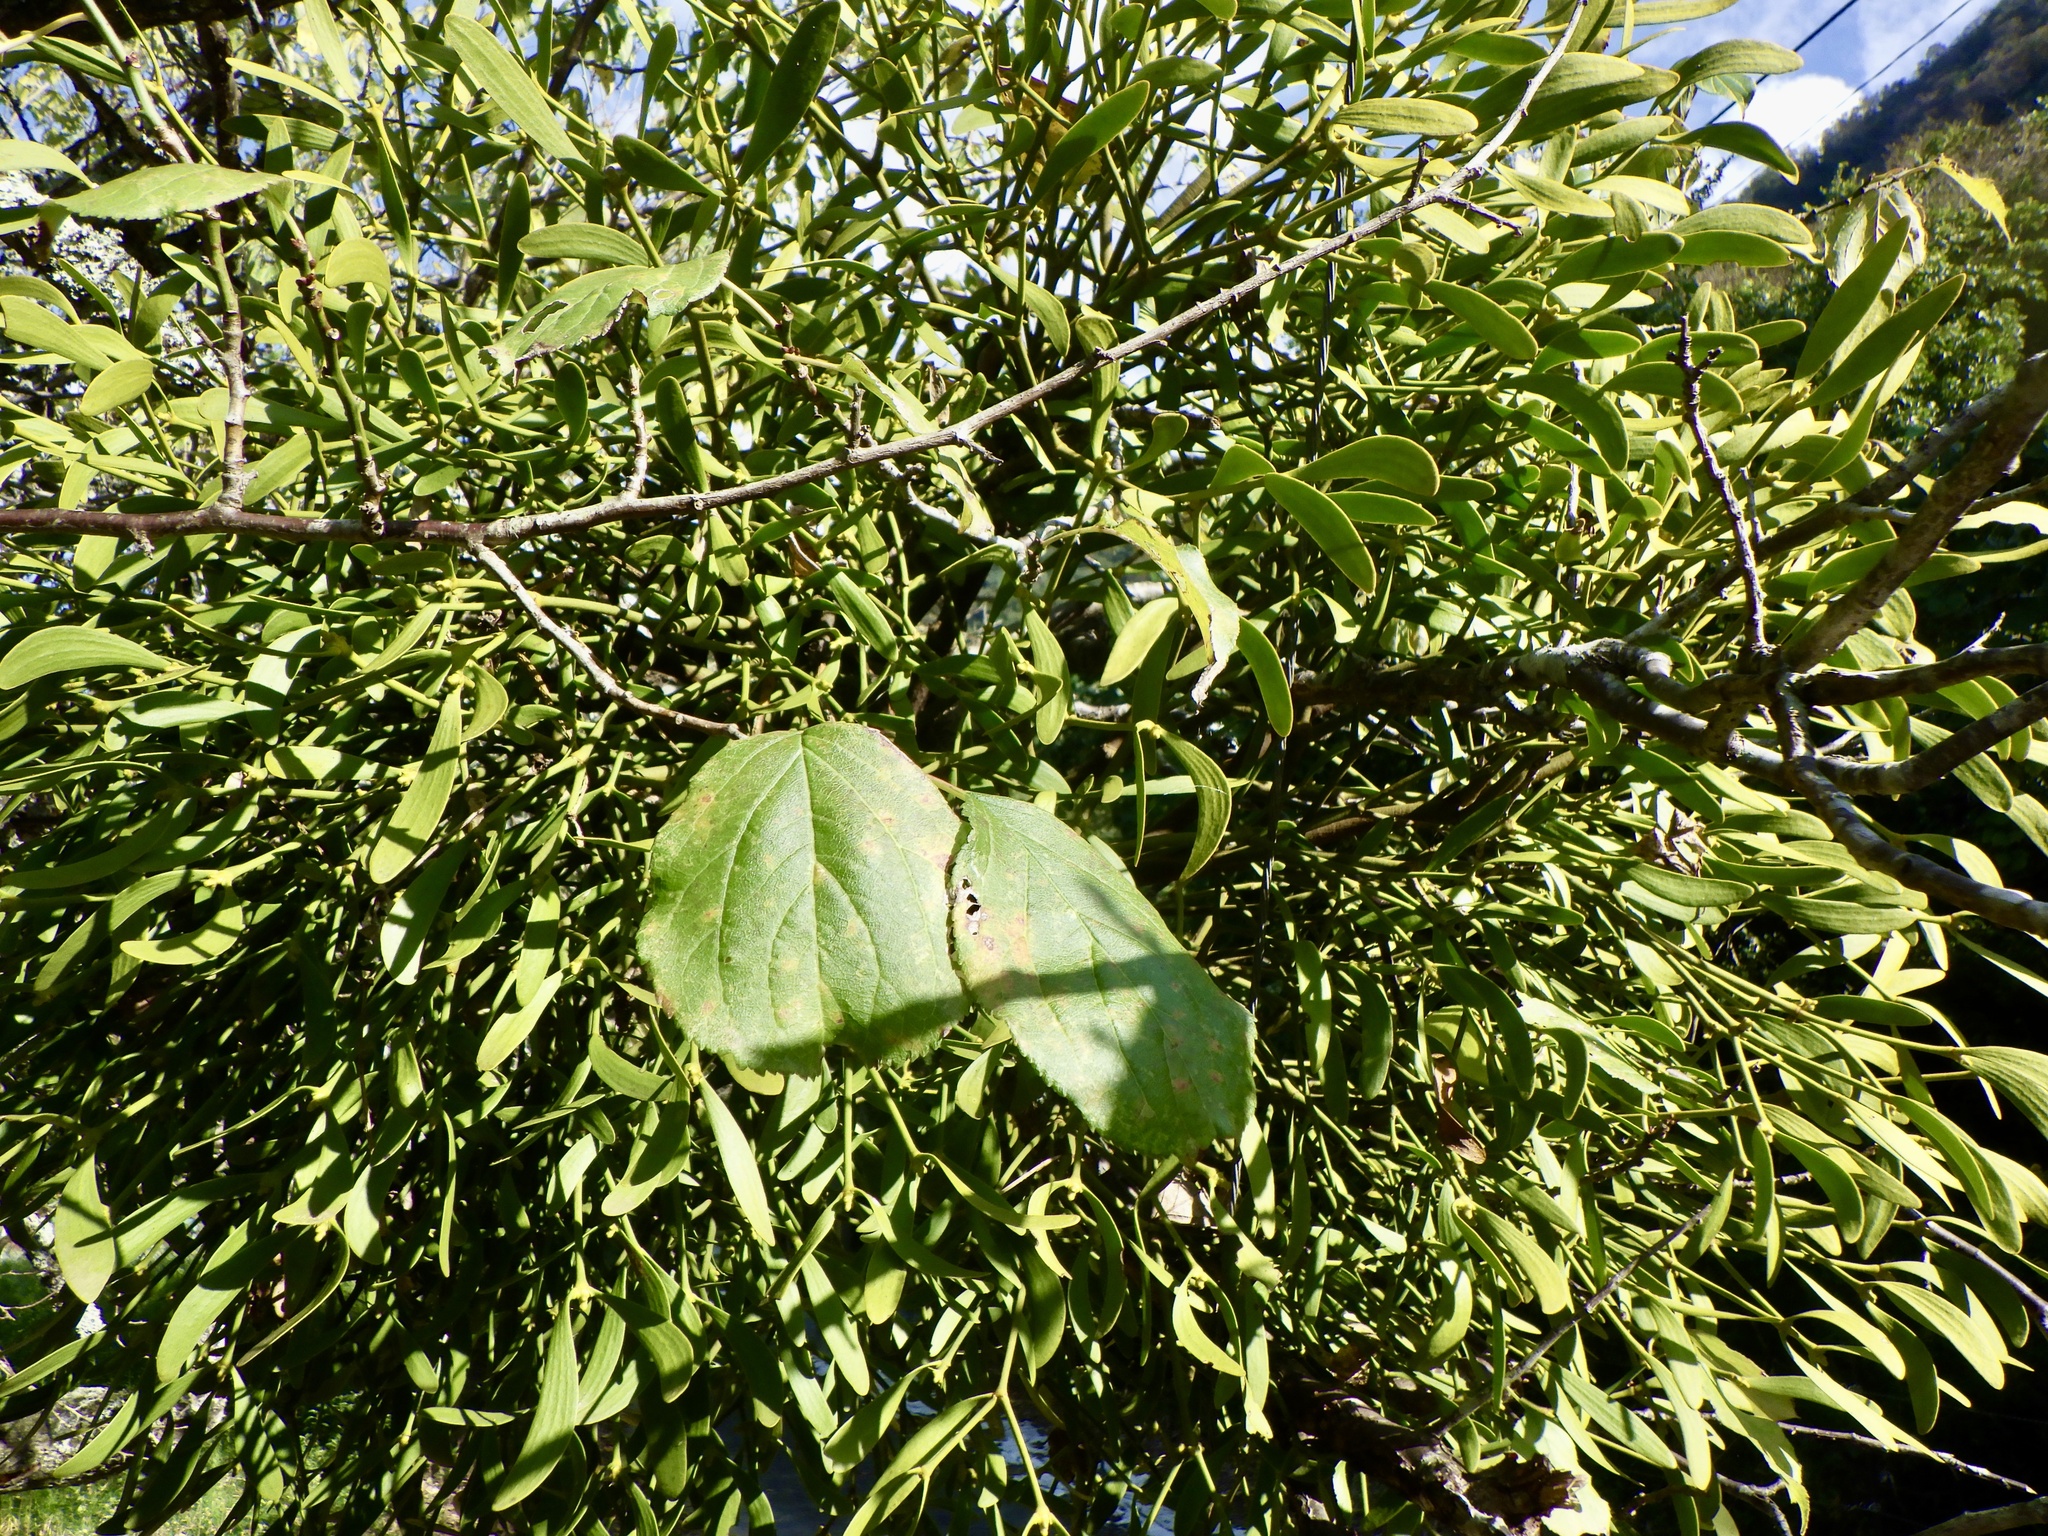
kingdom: Plantae
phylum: Tracheophyta
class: Magnoliopsida
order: Santalales
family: Viscaceae
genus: Viscum
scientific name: Viscum coloratum
